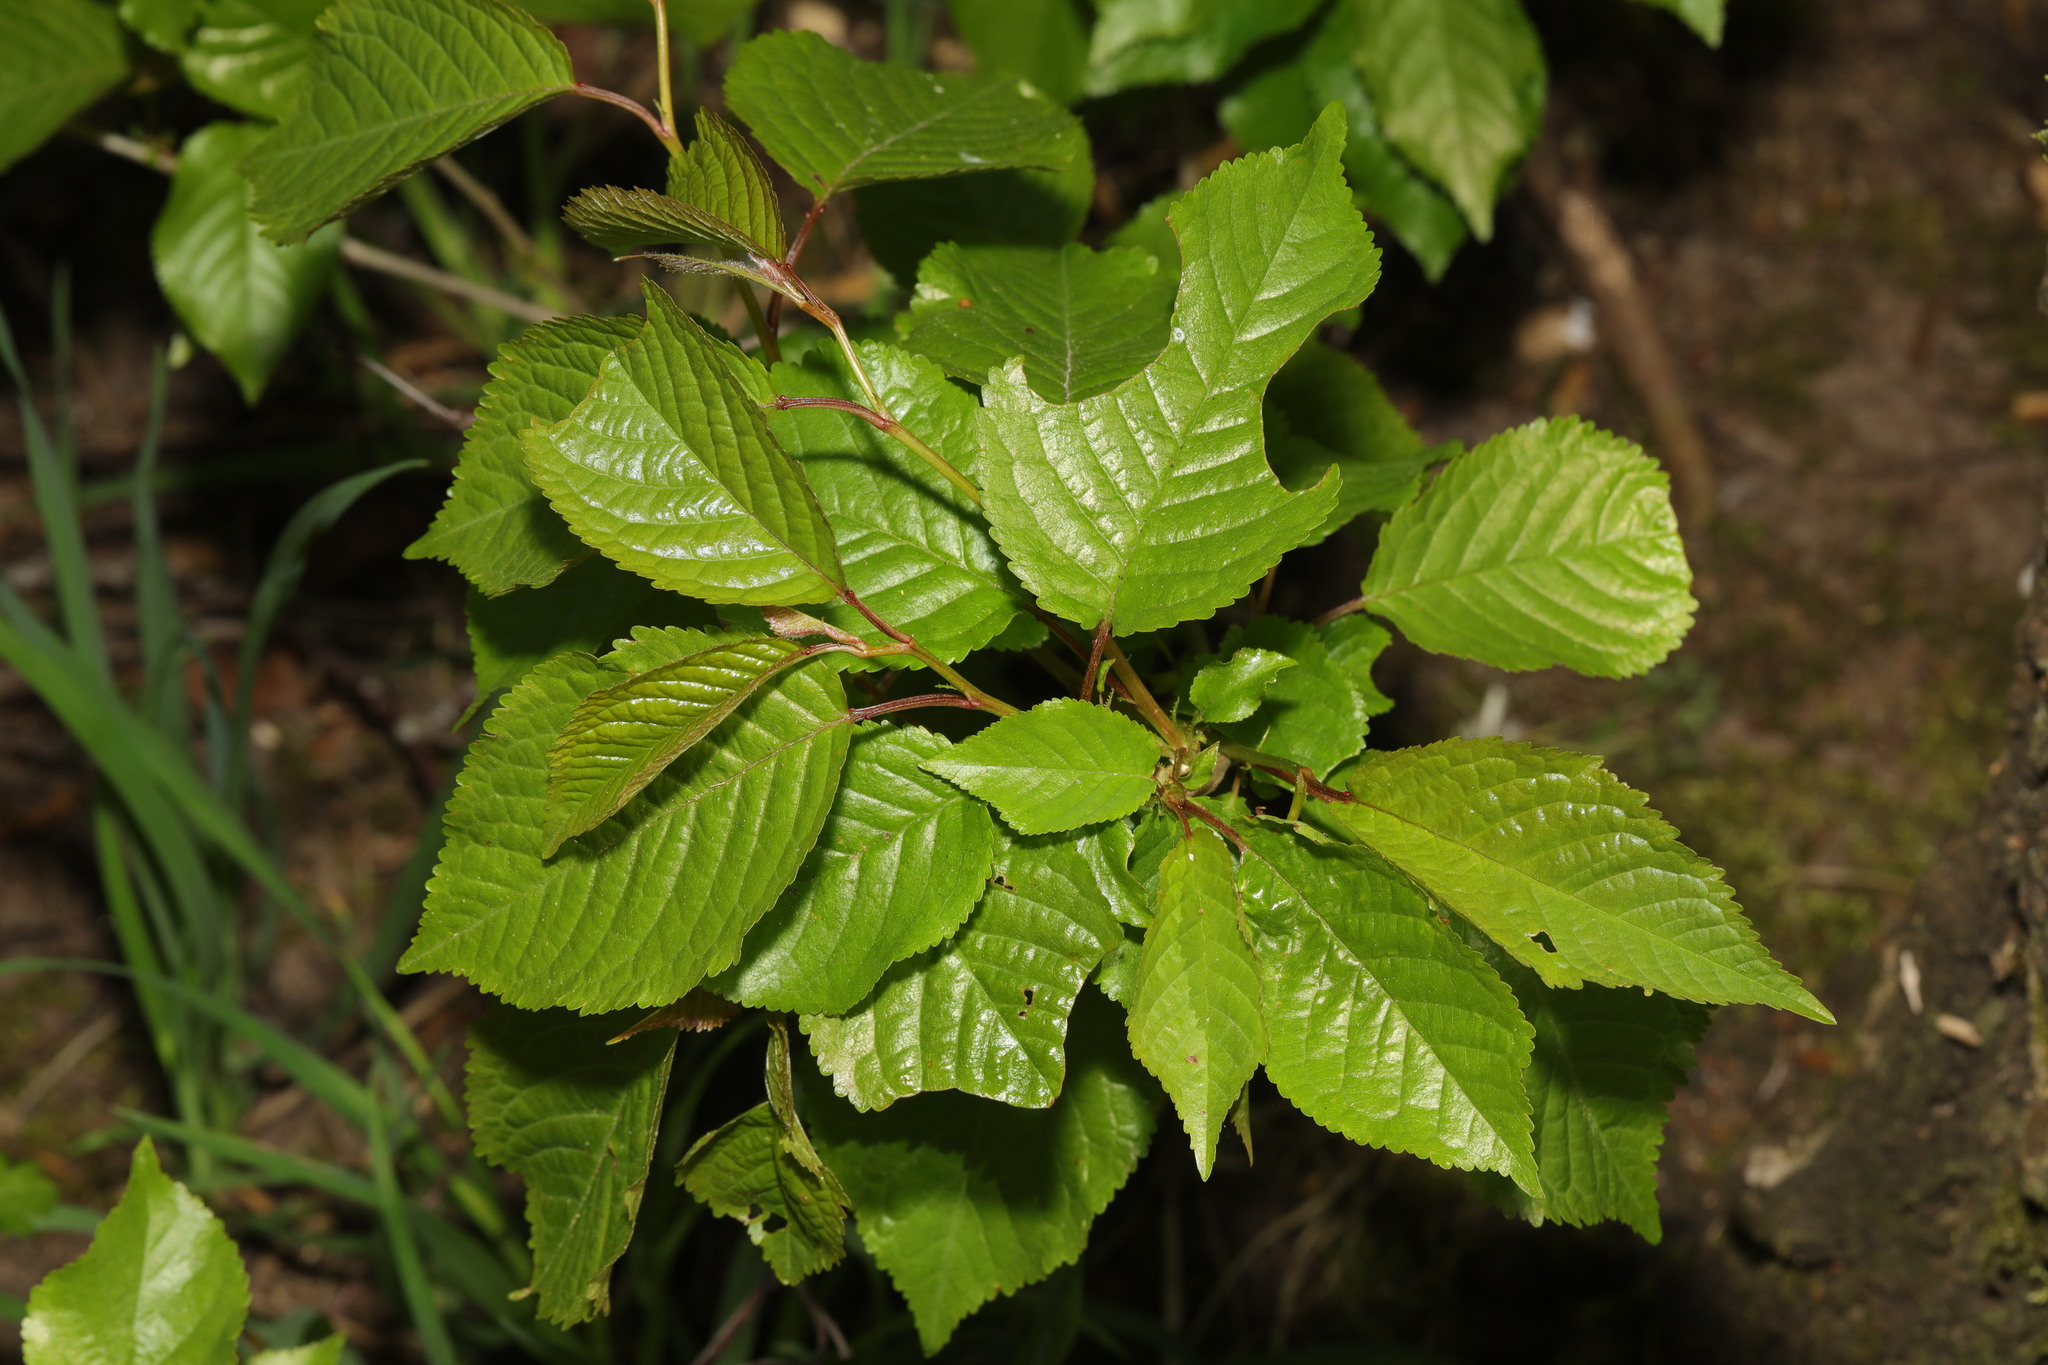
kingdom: Plantae
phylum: Tracheophyta
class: Magnoliopsida
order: Rosales
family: Rosaceae
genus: Prunus
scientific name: Prunus avium
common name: Sweet cherry
